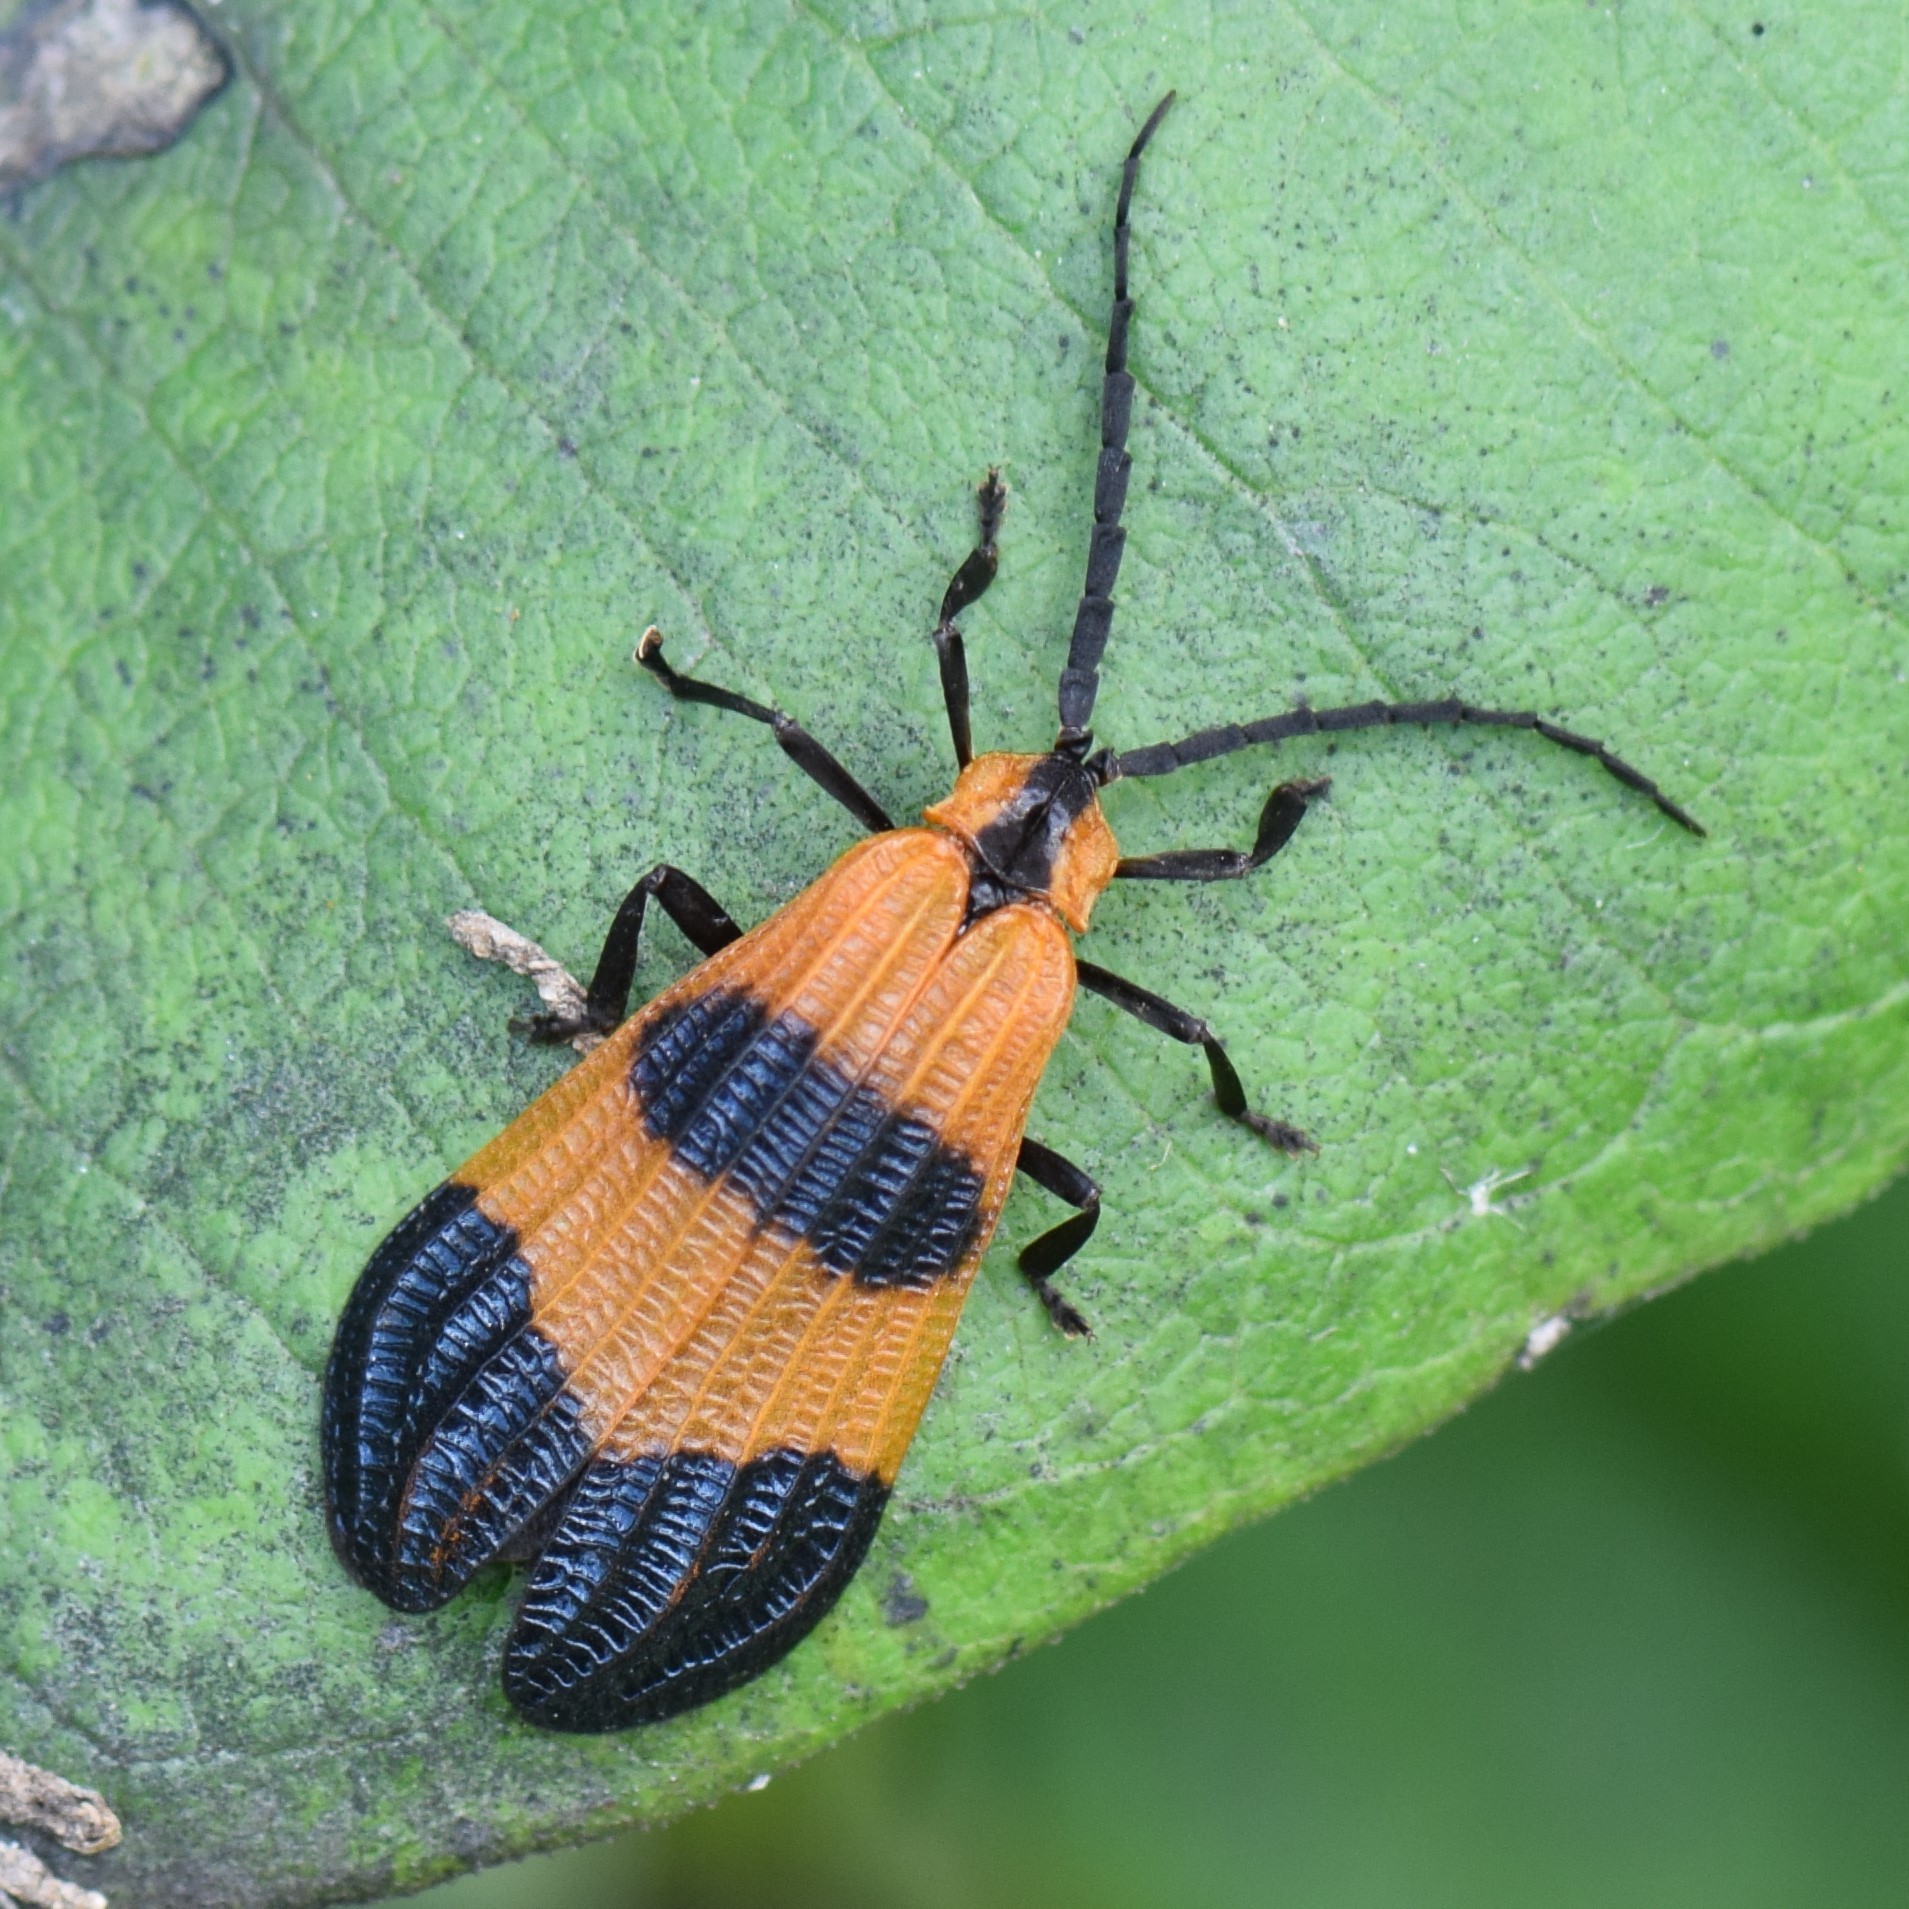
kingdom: Animalia
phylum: Arthropoda
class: Insecta
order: Coleoptera
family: Lycidae
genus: Calopteron
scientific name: Calopteron terminale
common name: End band net-winged beetle
